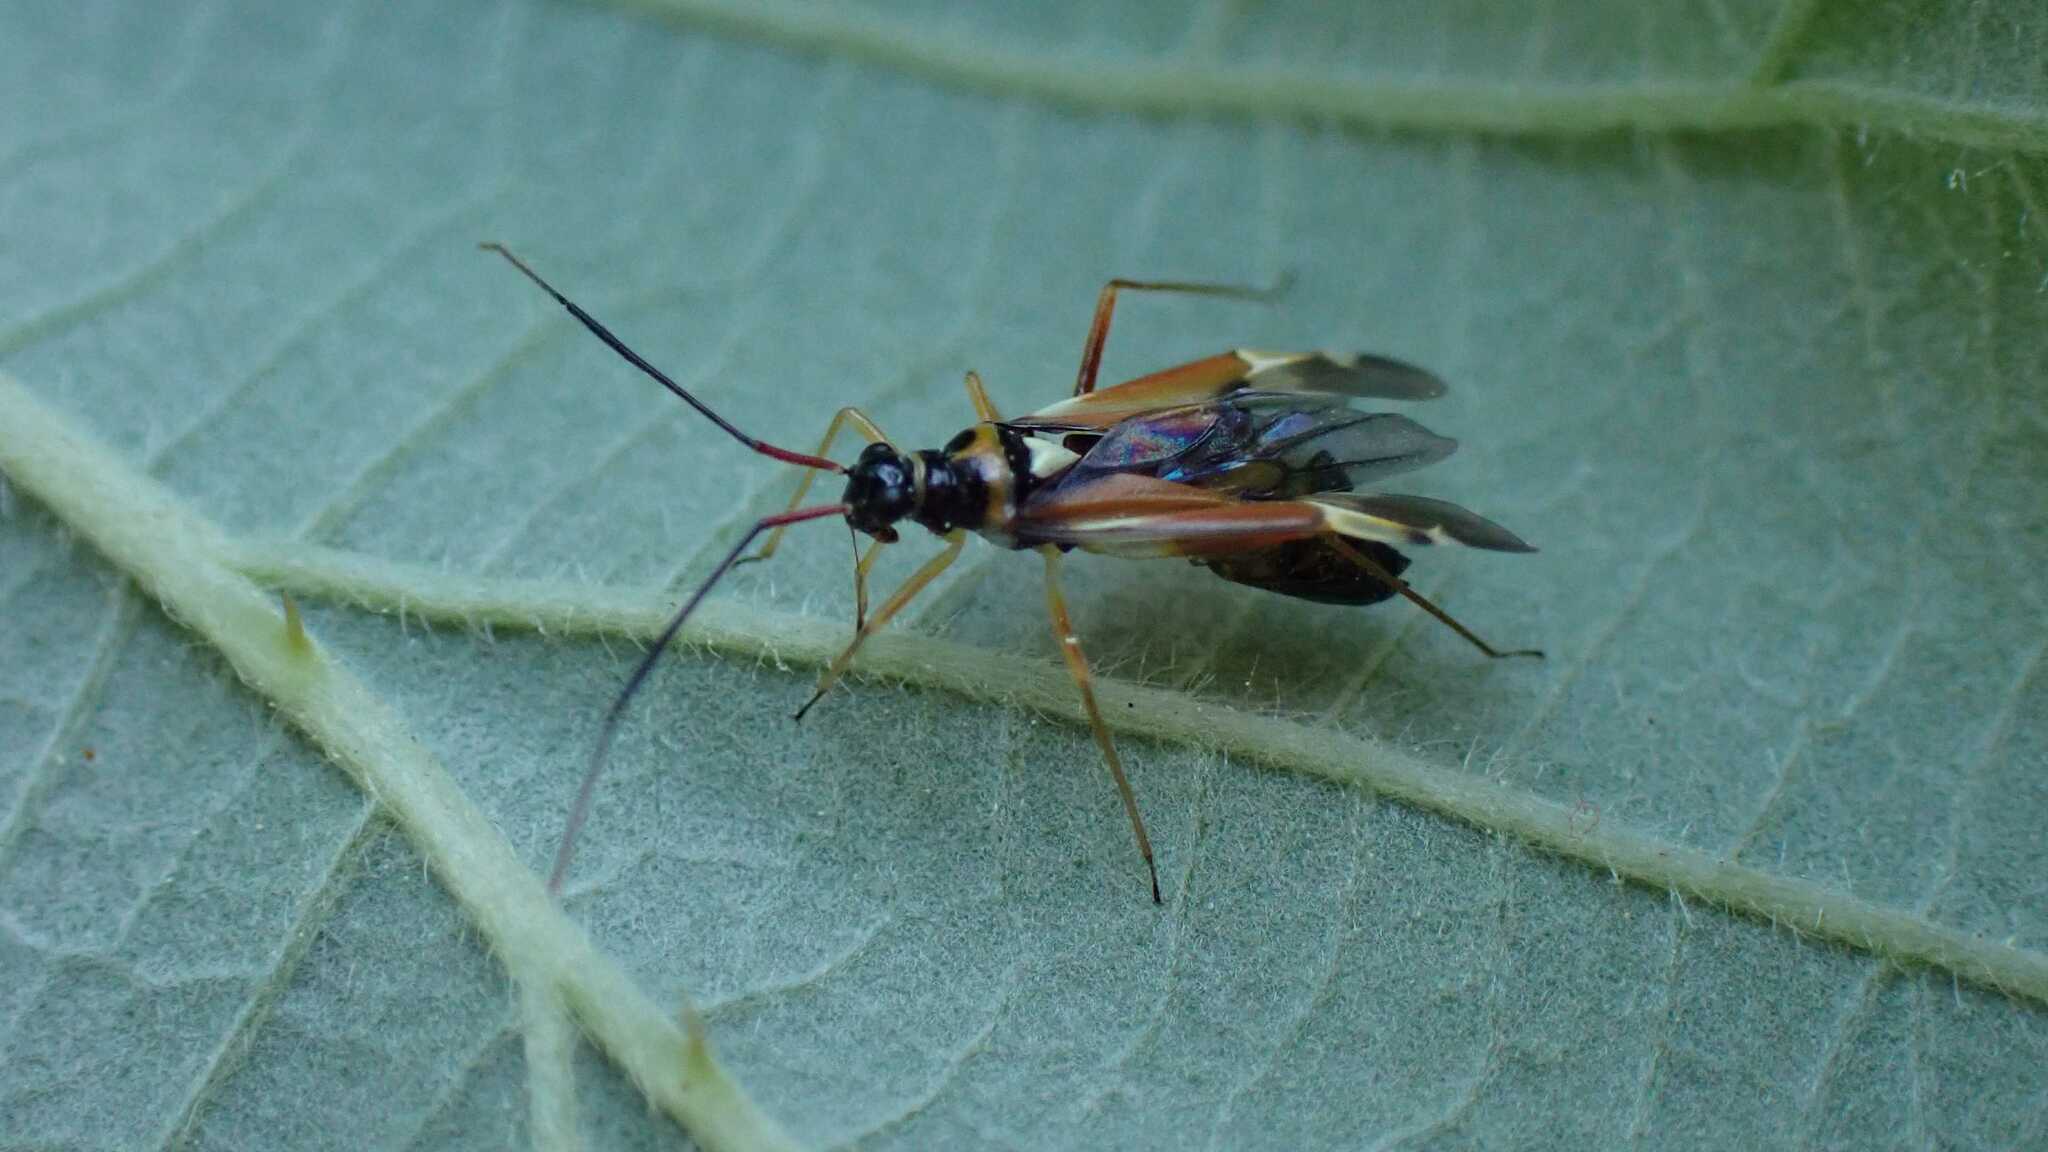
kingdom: Animalia
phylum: Arthropoda
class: Insecta
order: Hemiptera
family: Miridae
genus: Cyllecoris
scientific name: Cyllecoris histrionius
